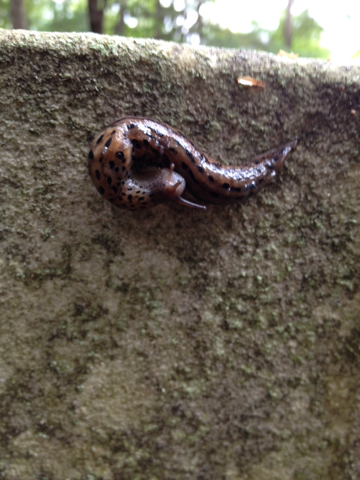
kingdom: Animalia
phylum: Mollusca
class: Gastropoda
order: Stylommatophora
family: Limacidae
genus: Limax
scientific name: Limax maximus
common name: Great grey slug
